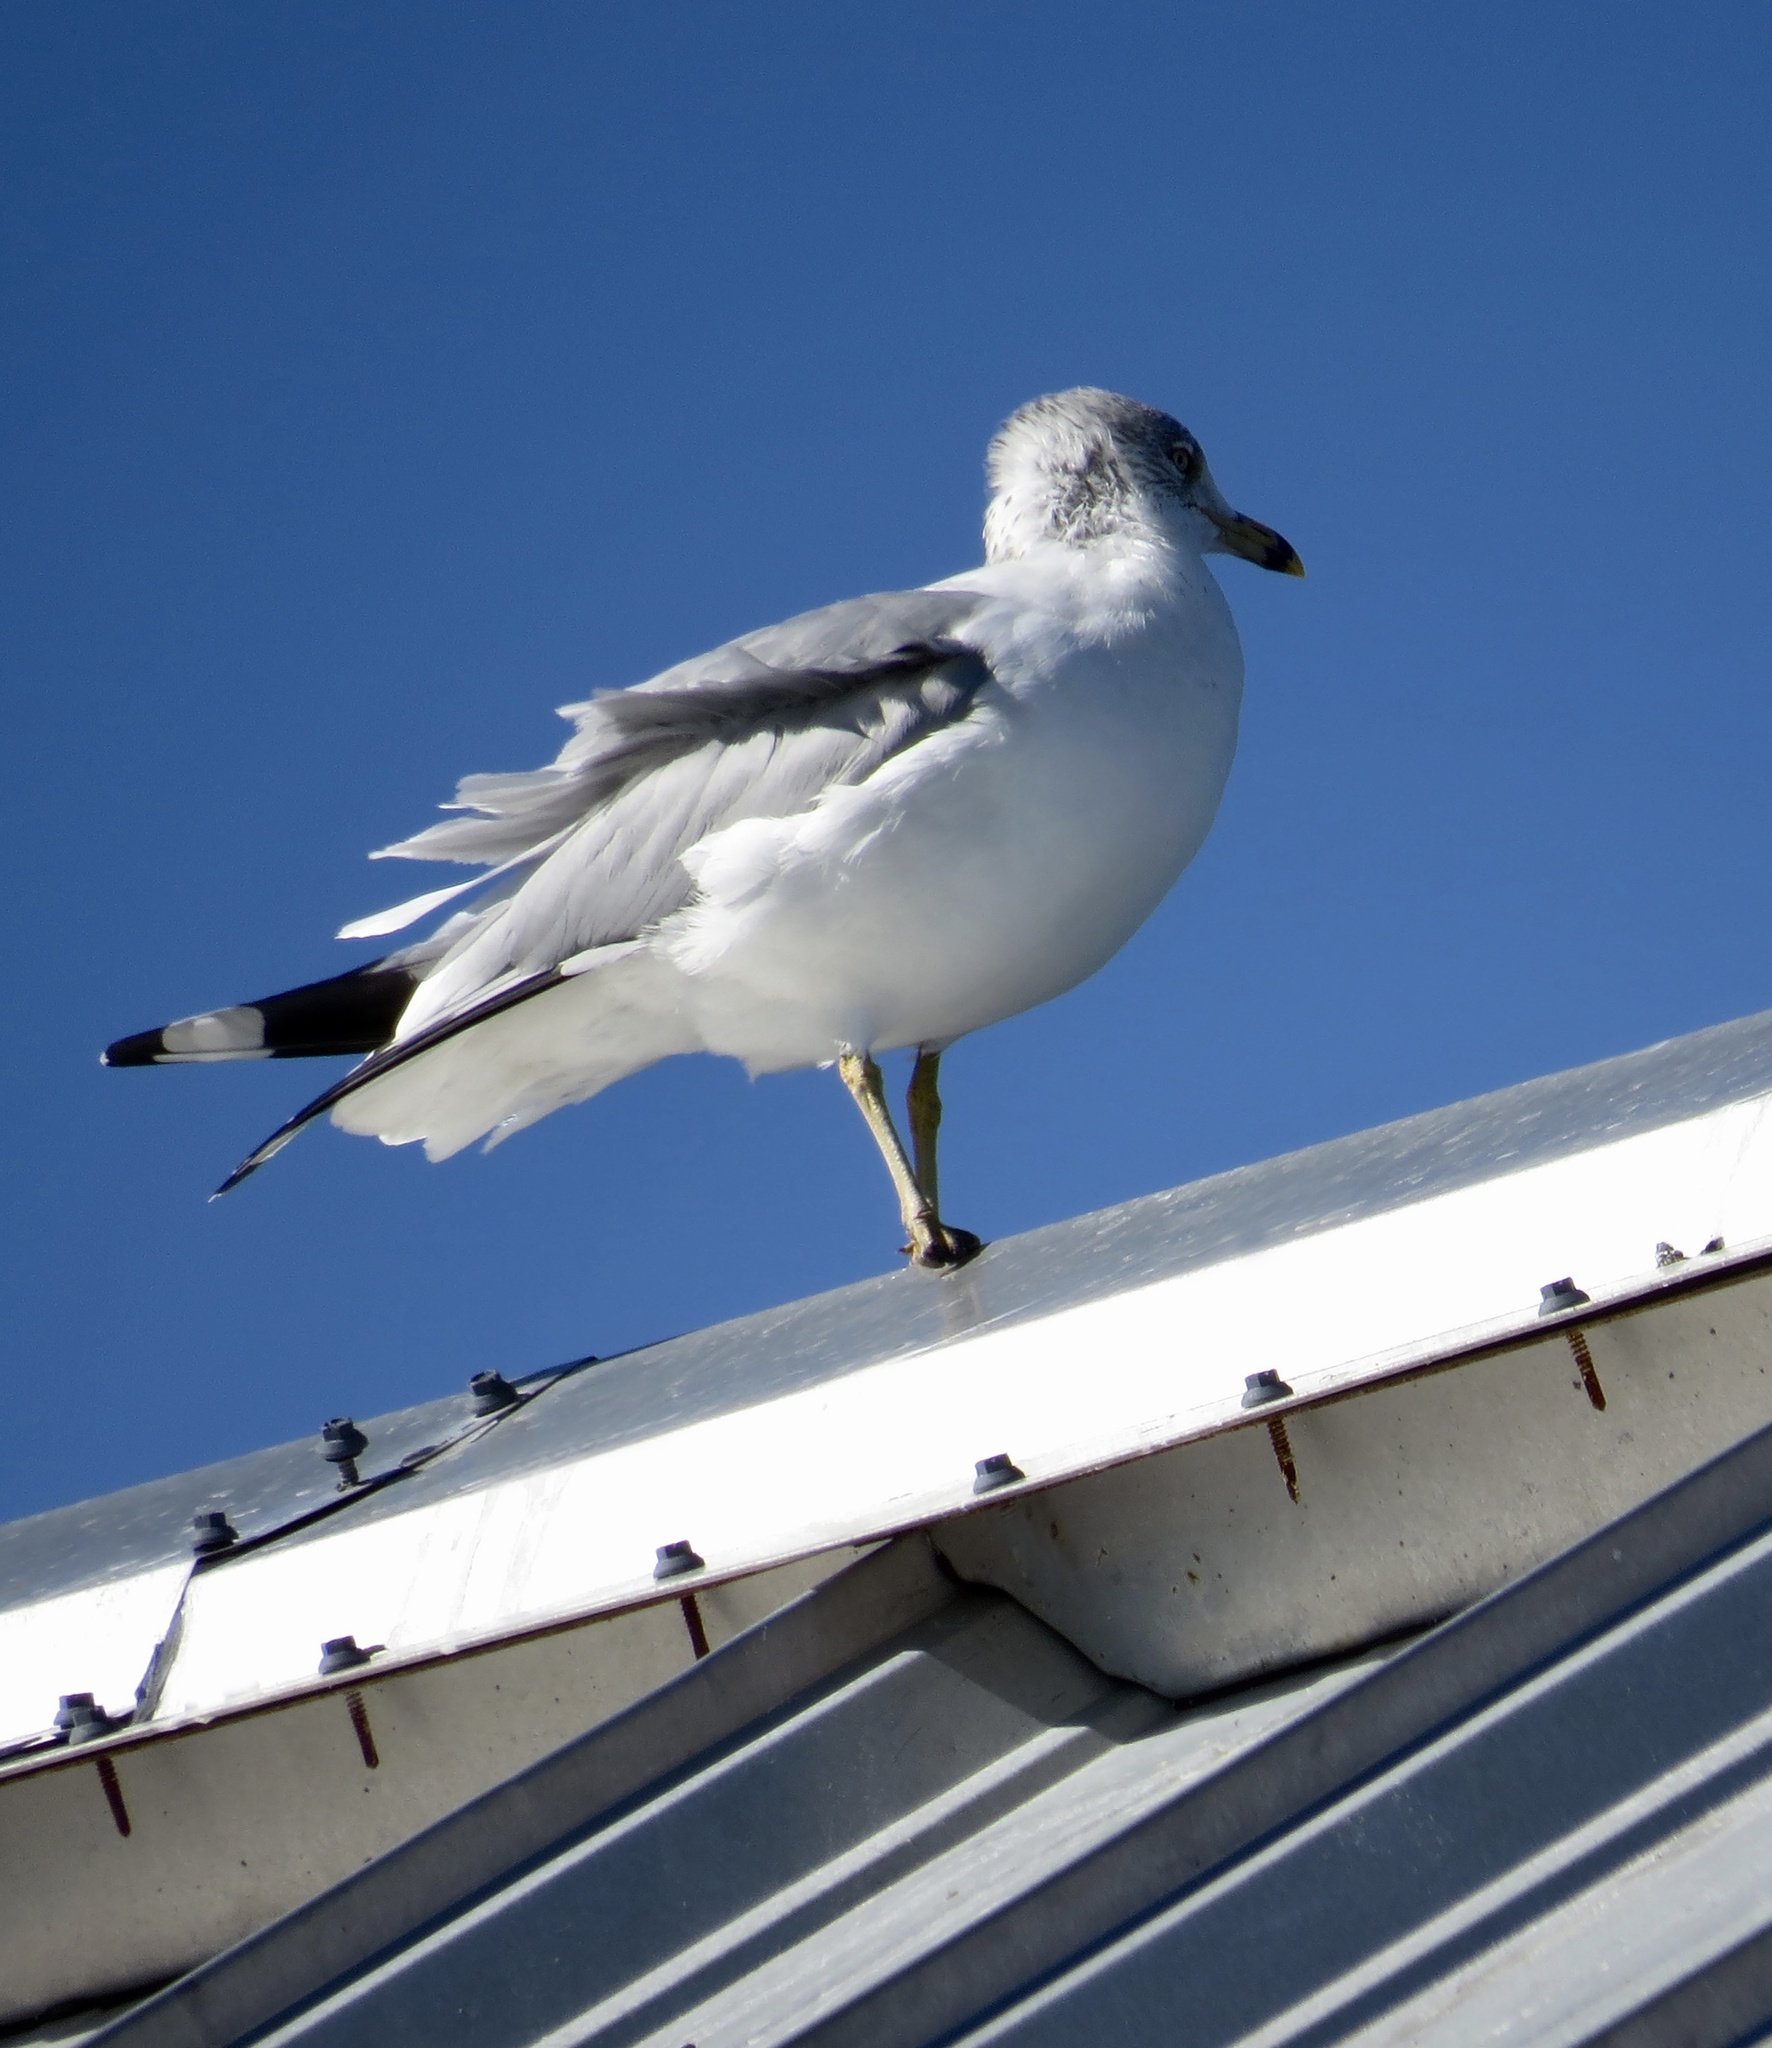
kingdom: Animalia
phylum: Chordata
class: Aves
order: Charadriiformes
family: Laridae
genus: Larus
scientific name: Larus delawarensis
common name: Ring-billed gull
